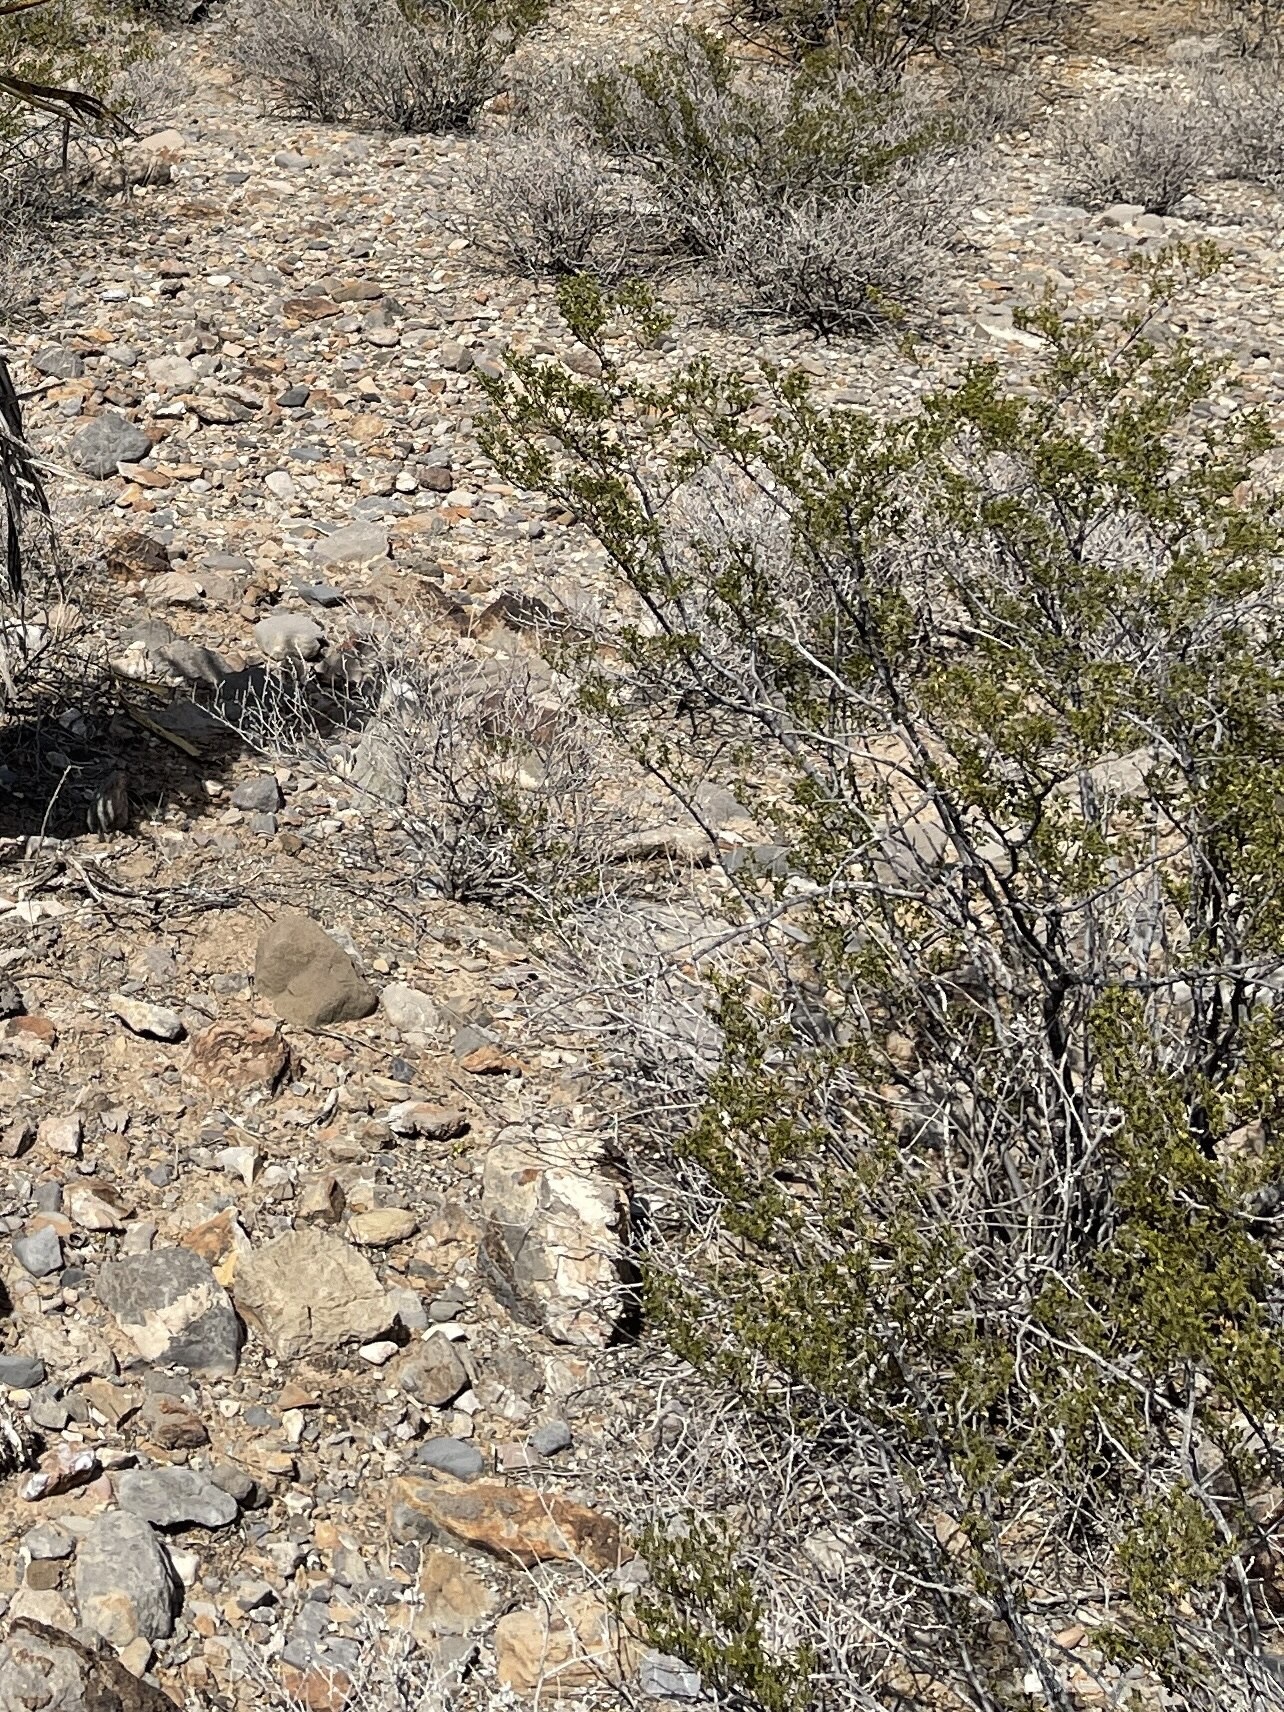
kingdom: Plantae
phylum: Tracheophyta
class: Magnoliopsida
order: Zygophyllales
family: Zygophyllaceae
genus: Larrea
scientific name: Larrea tridentata
